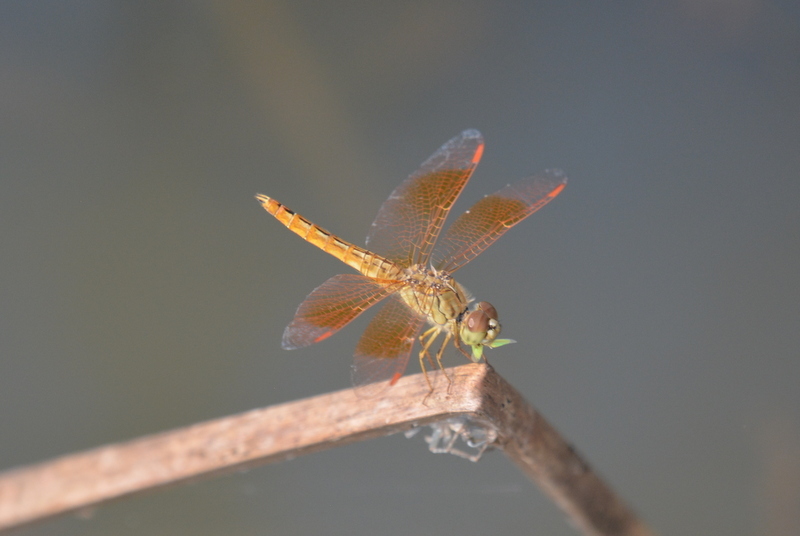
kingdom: Animalia
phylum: Arthropoda
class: Insecta
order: Odonata
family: Libellulidae
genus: Brachythemis
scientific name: Brachythemis contaminata
